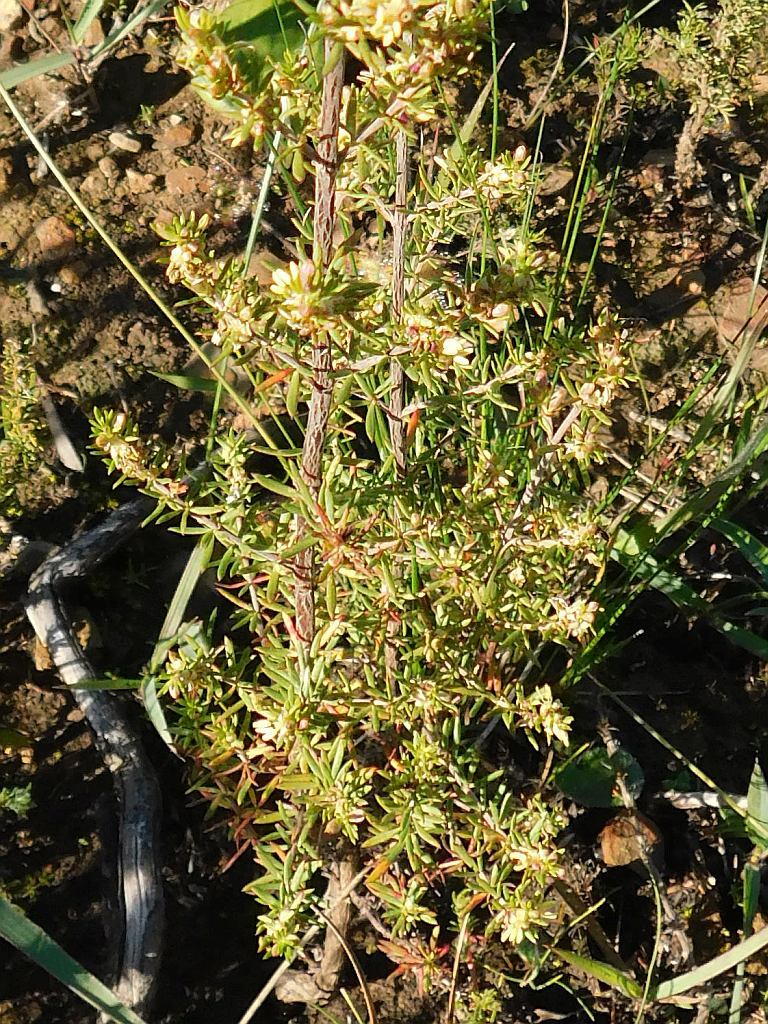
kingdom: Plantae
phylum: Tracheophyta
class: Magnoliopsida
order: Malvales
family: Thymelaeaceae
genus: Passerina
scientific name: Passerina corymbosa
